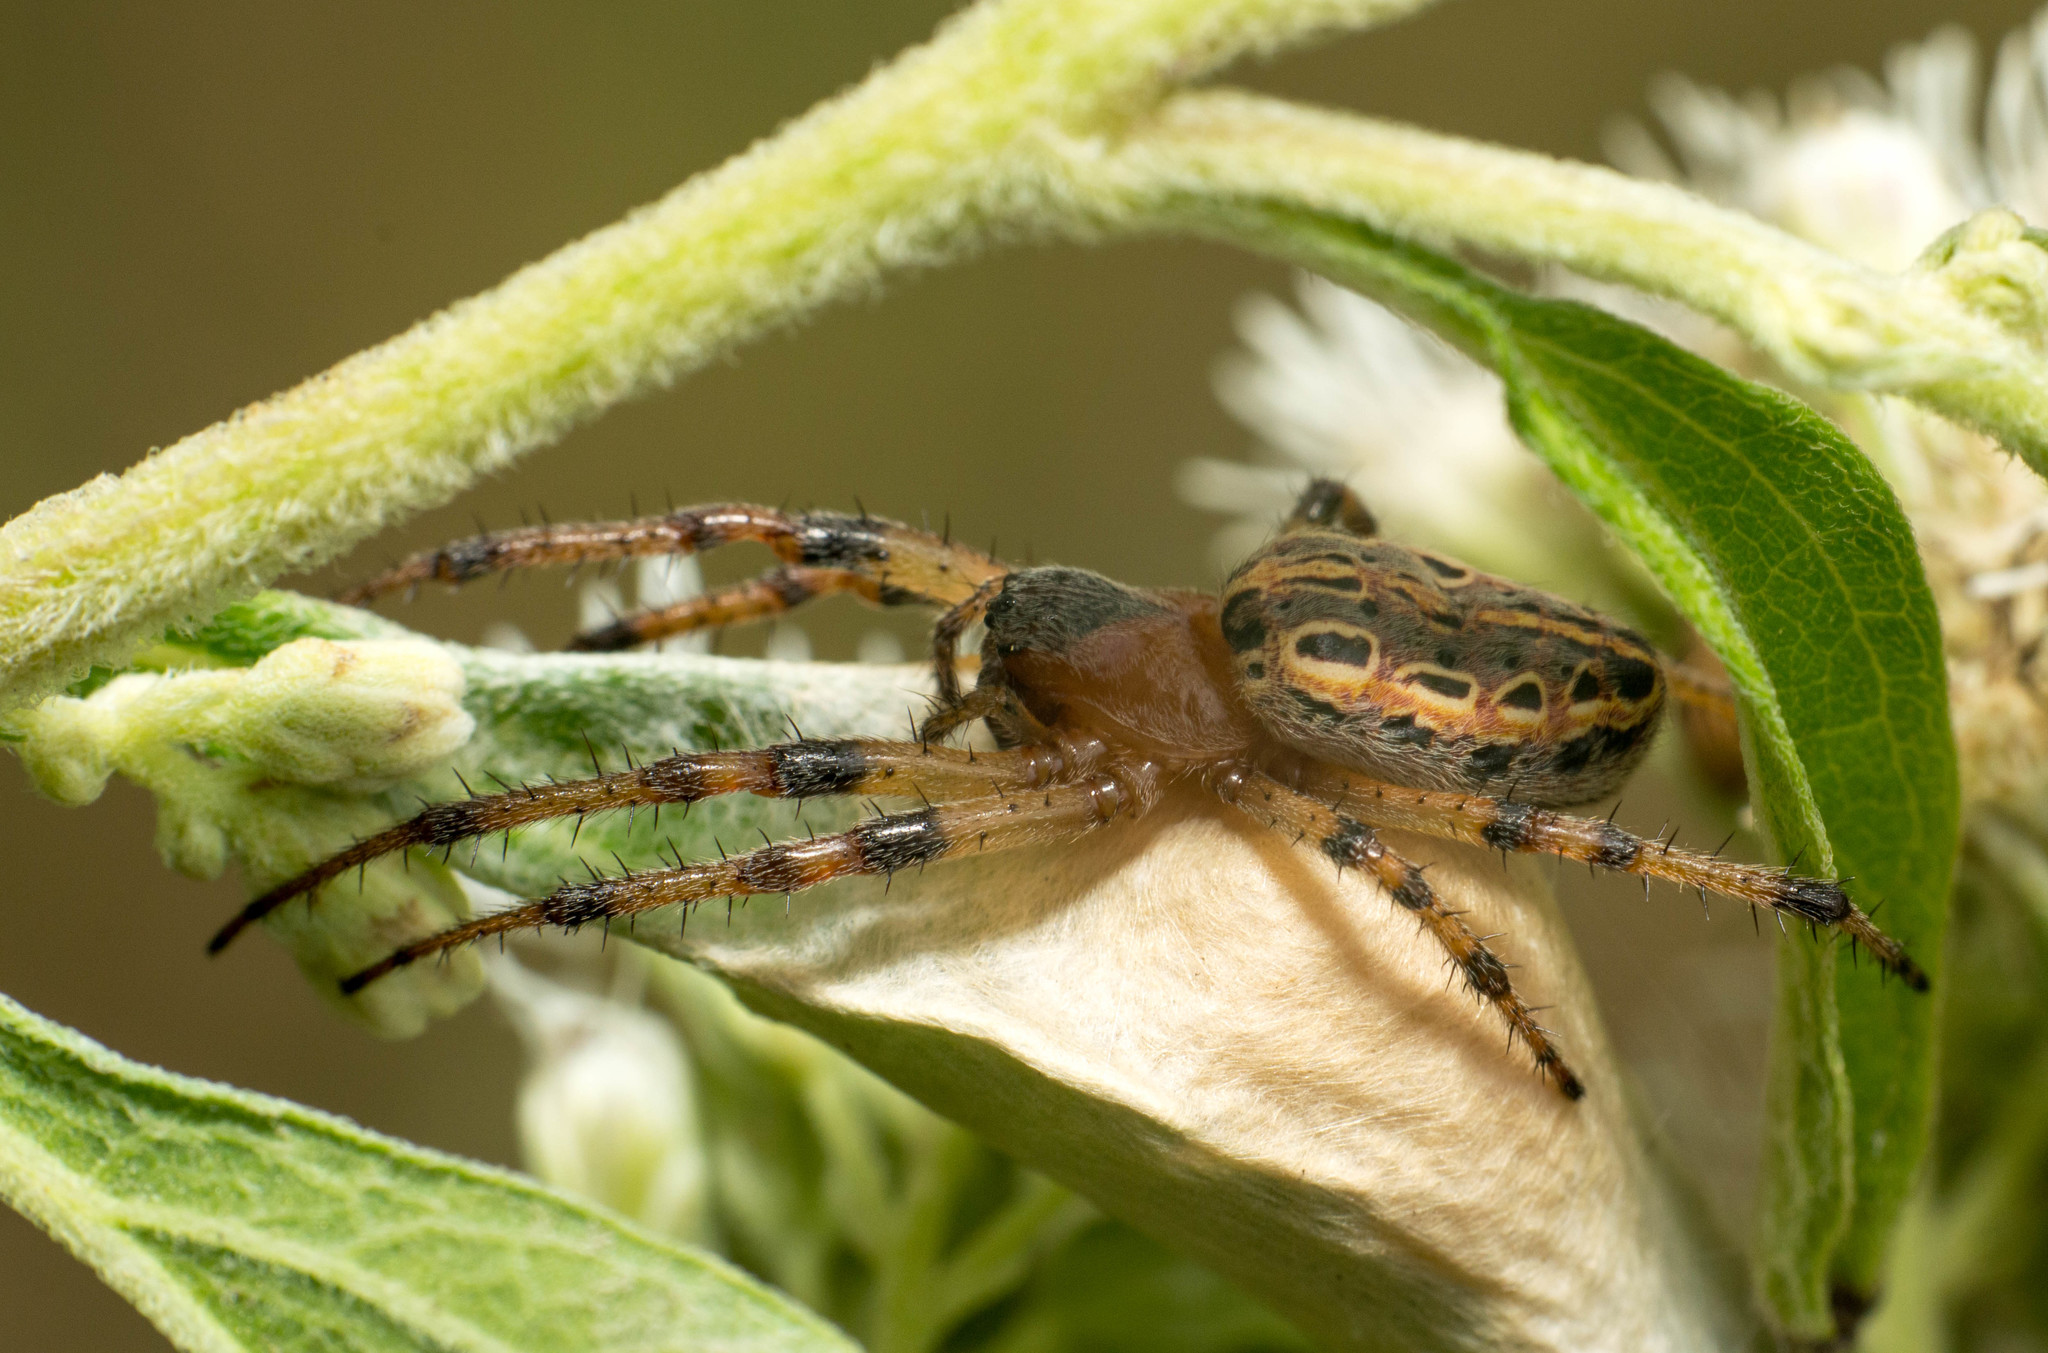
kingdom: Animalia
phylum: Arthropoda
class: Arachnida
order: Araneae
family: Araneidae
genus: Alpaida
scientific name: Alpaida veniliae
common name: Orb weavers
